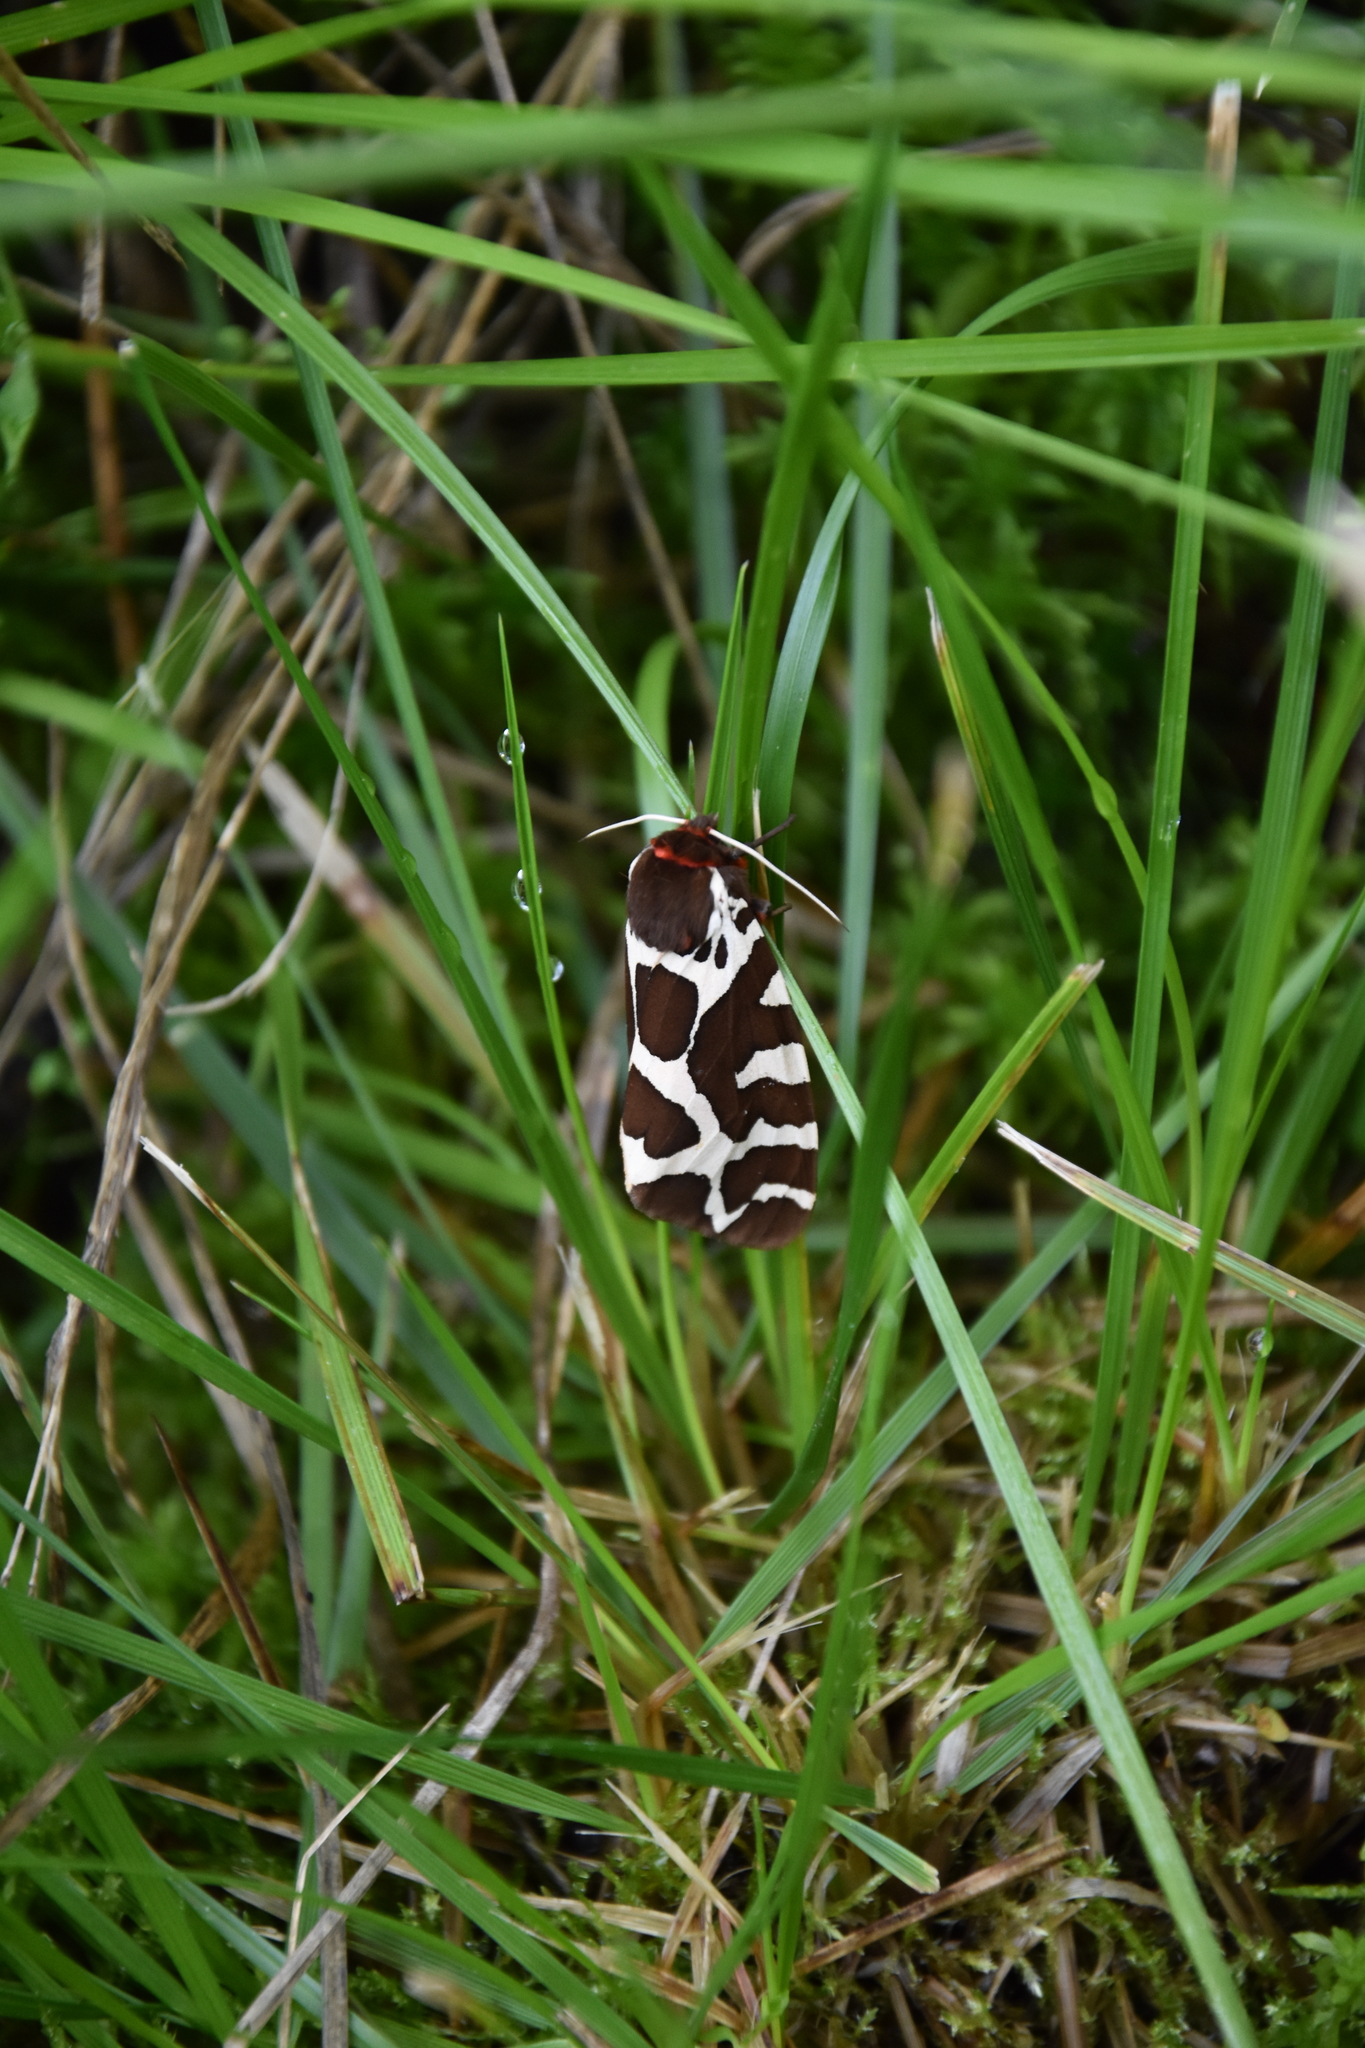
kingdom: Animalia
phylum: Arthropoda
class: Insecta
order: Lepidoptera
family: Erebidae
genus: Arctia
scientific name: Arctia caja
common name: Garden tiger
